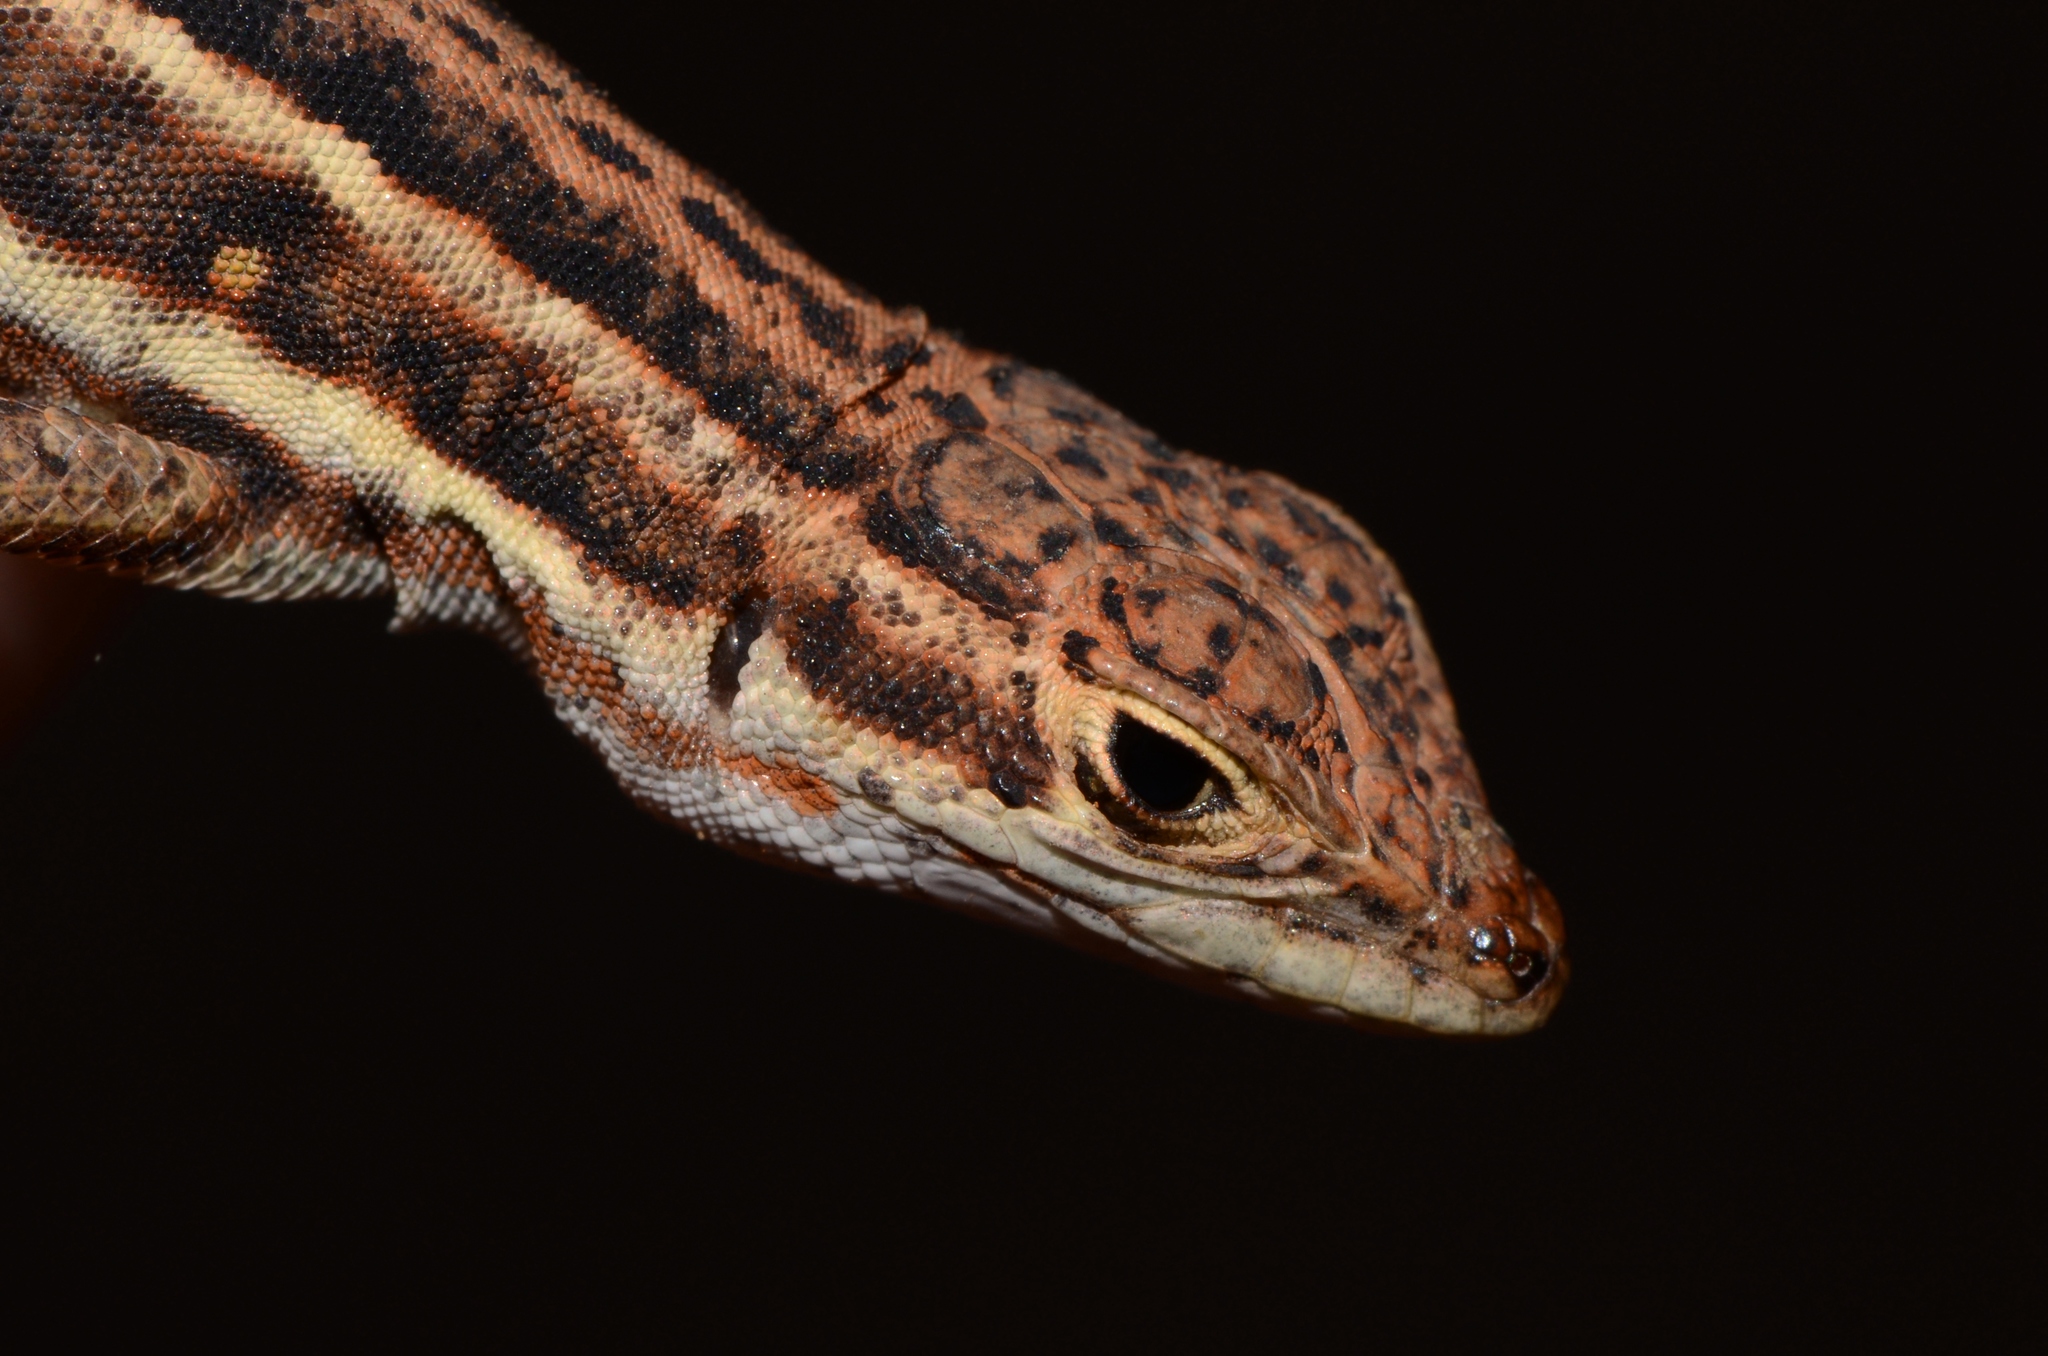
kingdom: Animalia
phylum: Chordata
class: Squamata
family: Lacertidae
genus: Pedioplanis
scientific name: Pedioplanis lineoocellata
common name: Spotted sand lizard
